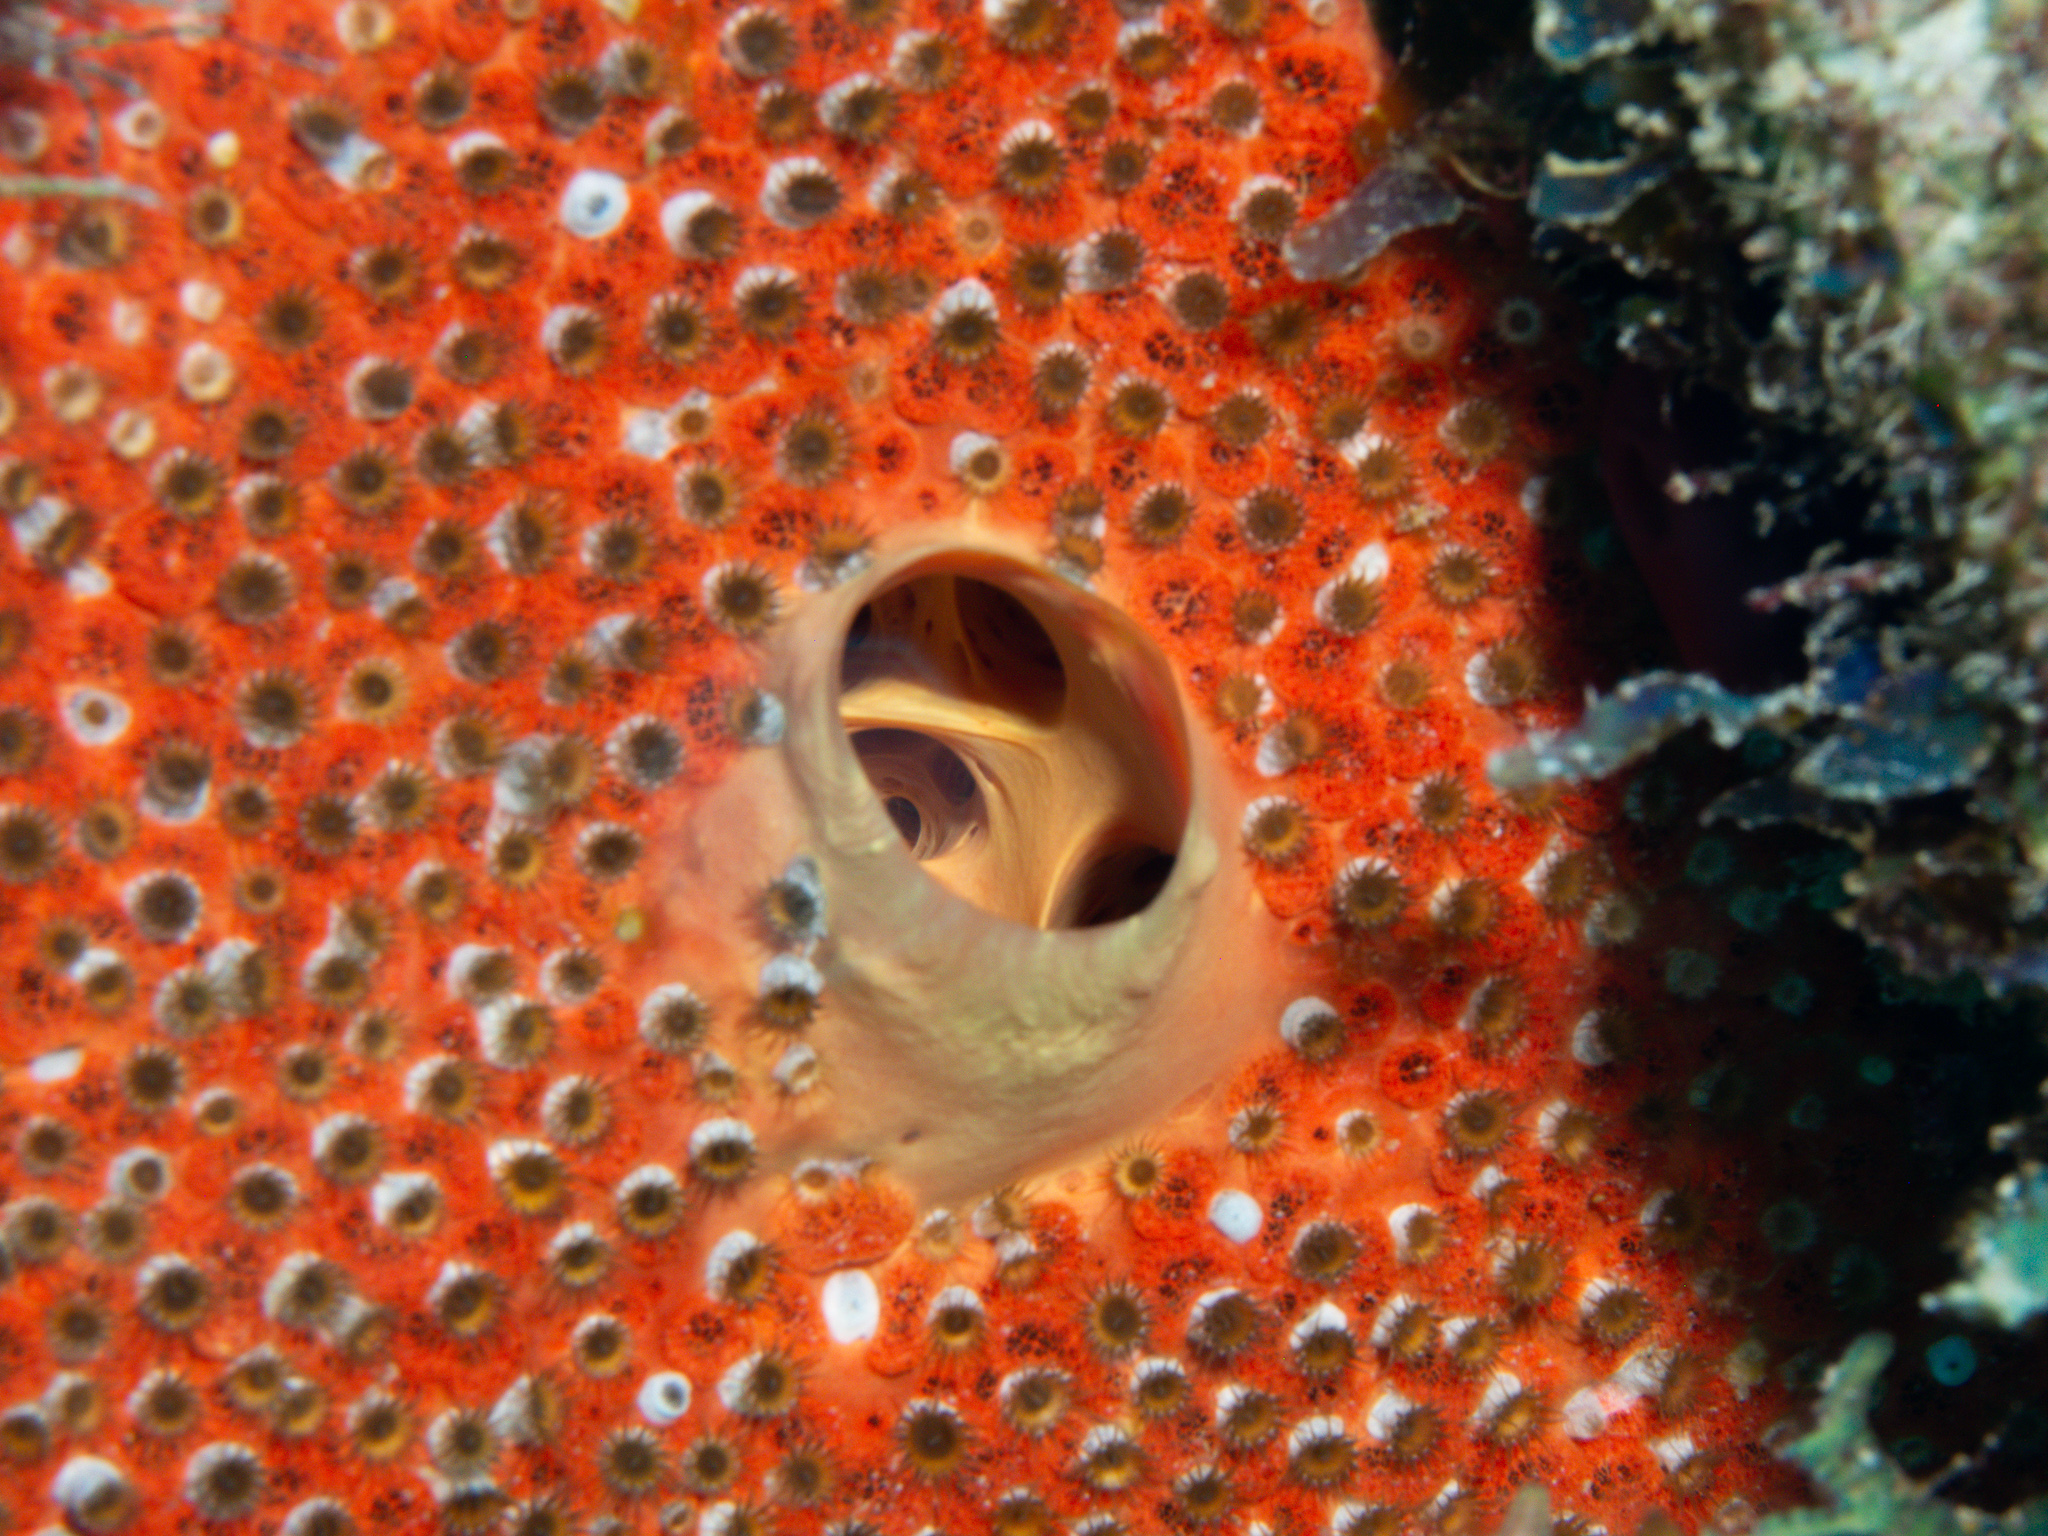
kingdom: Animalia
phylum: Porifera
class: Demospongiae
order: Clionaida
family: Clionaidae
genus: Cliothosa
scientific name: Cliothosa delitrix
